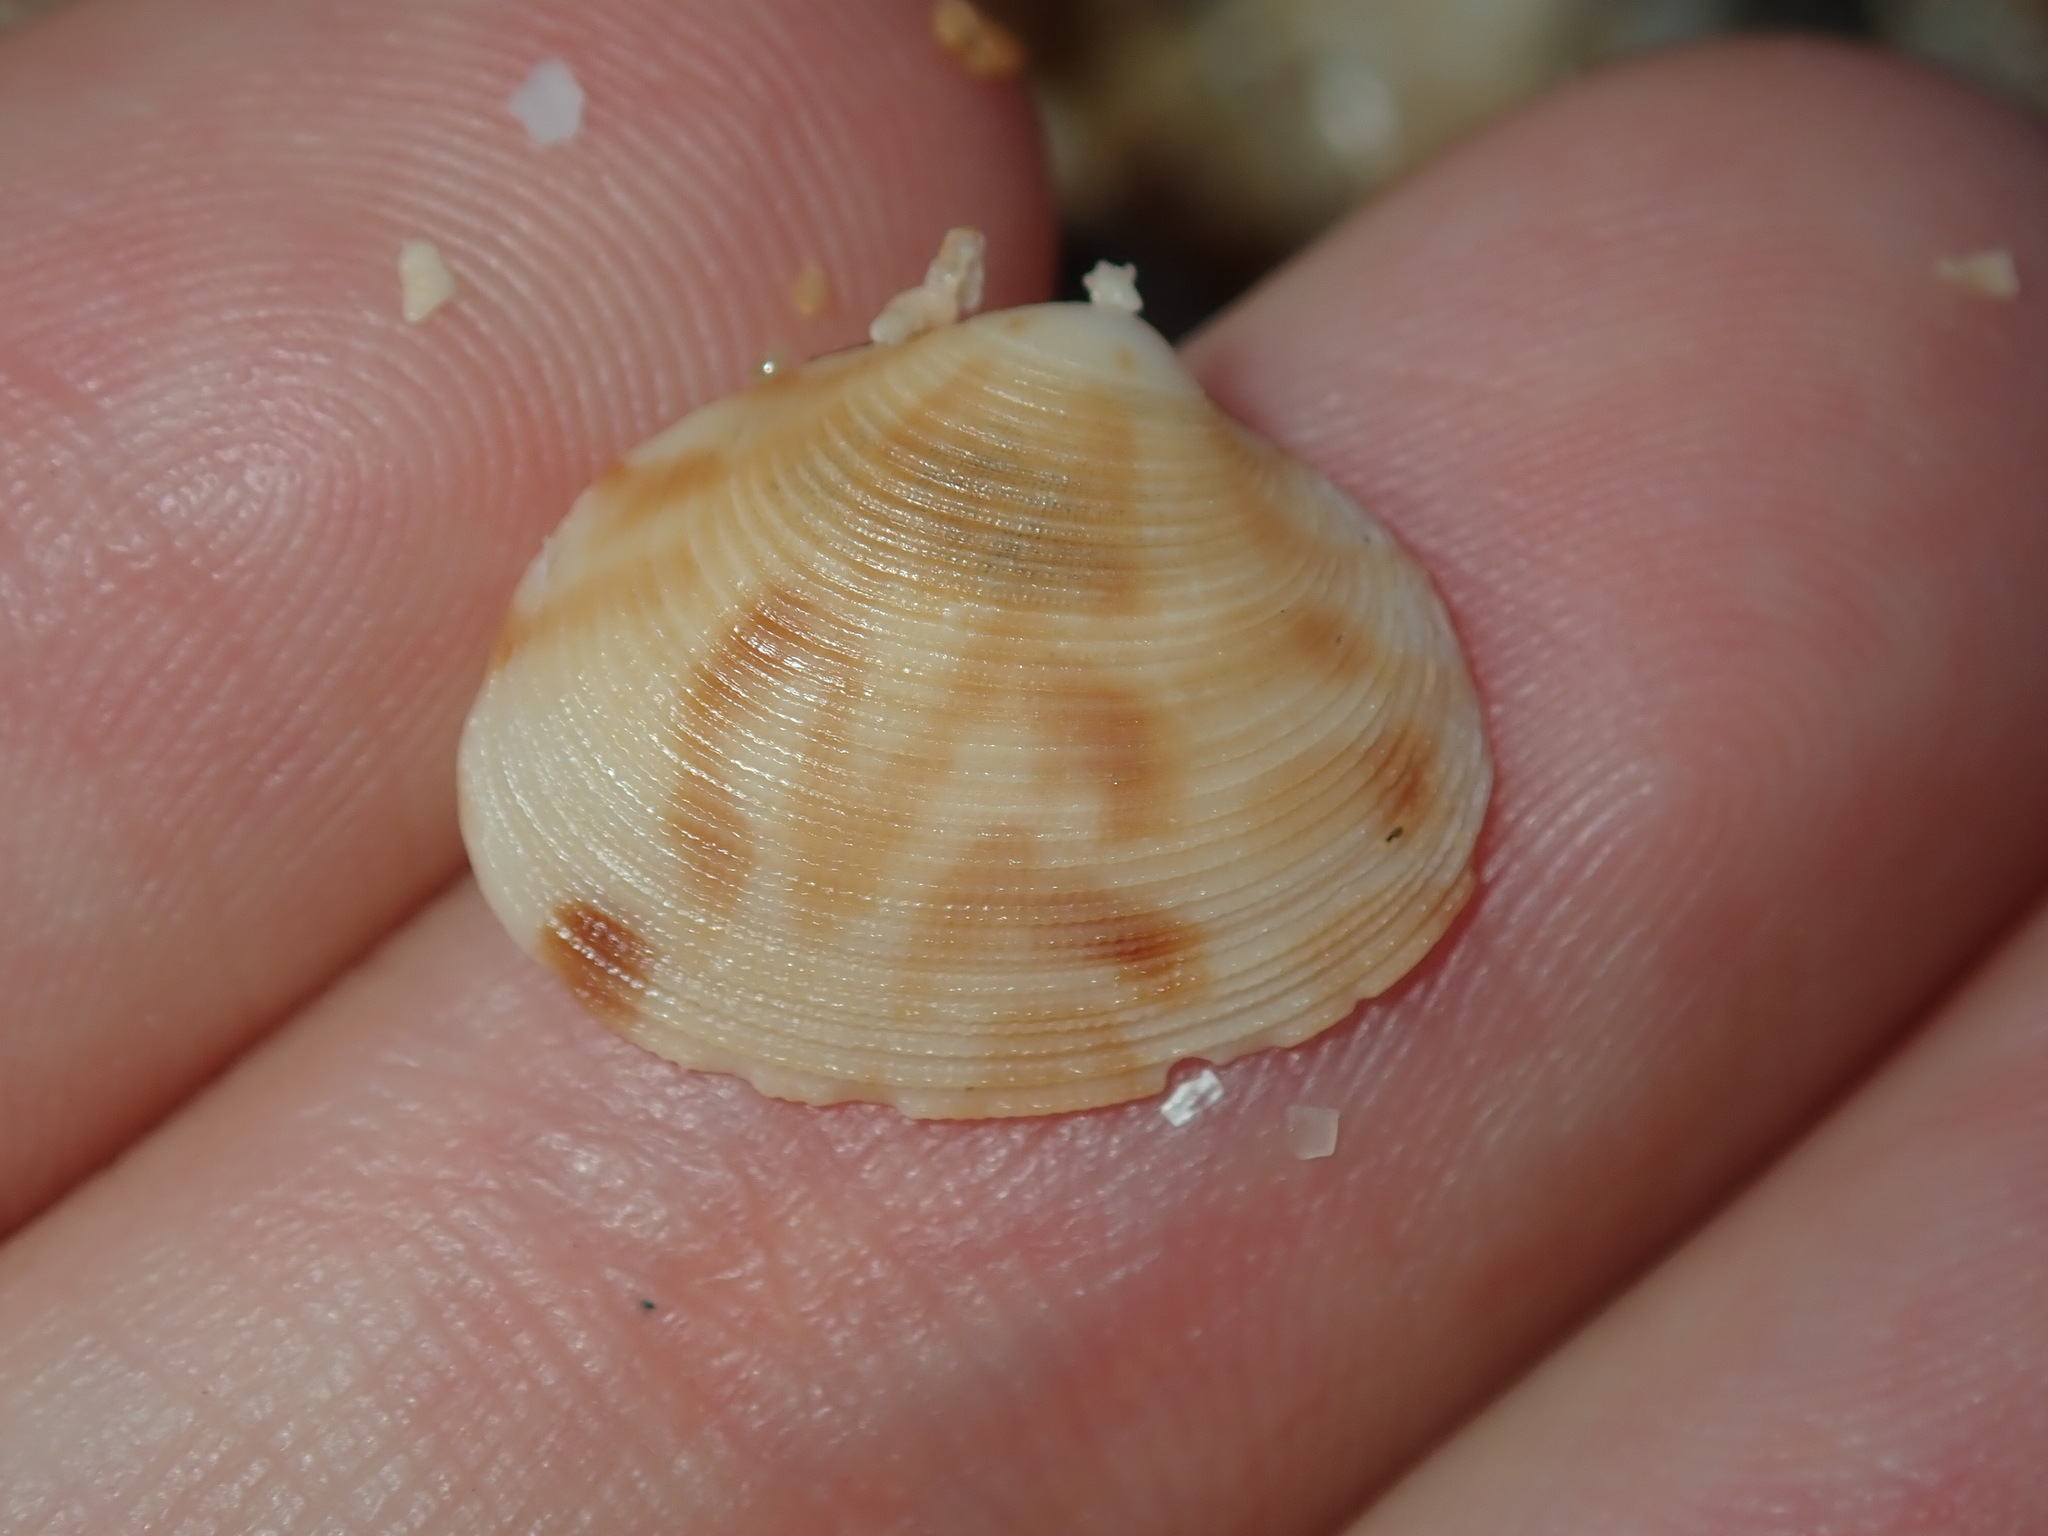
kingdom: Animalia
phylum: Mollusca
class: Bivalvia
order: Venerida
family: Veneridae
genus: Tawera
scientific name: Tawera lagopus
